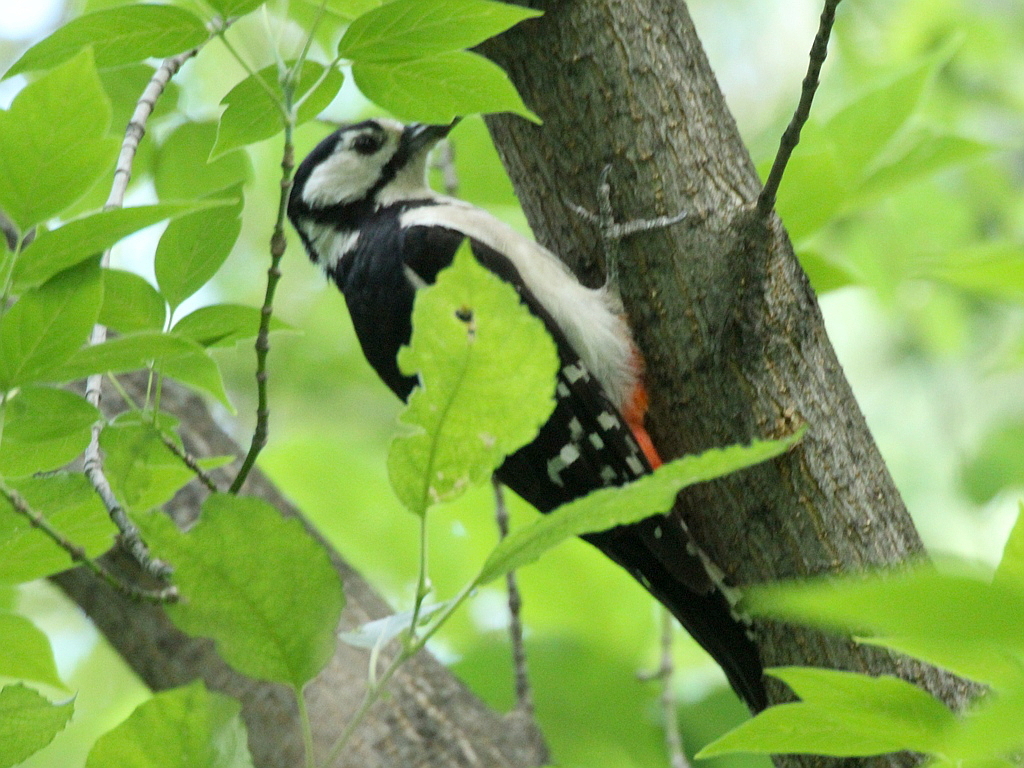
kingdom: Animalia
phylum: Chordata
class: Aves
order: Piciformes
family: Picidae
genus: Dendrocopos
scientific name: Dendrocopos major
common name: Great spotted woodpecker
